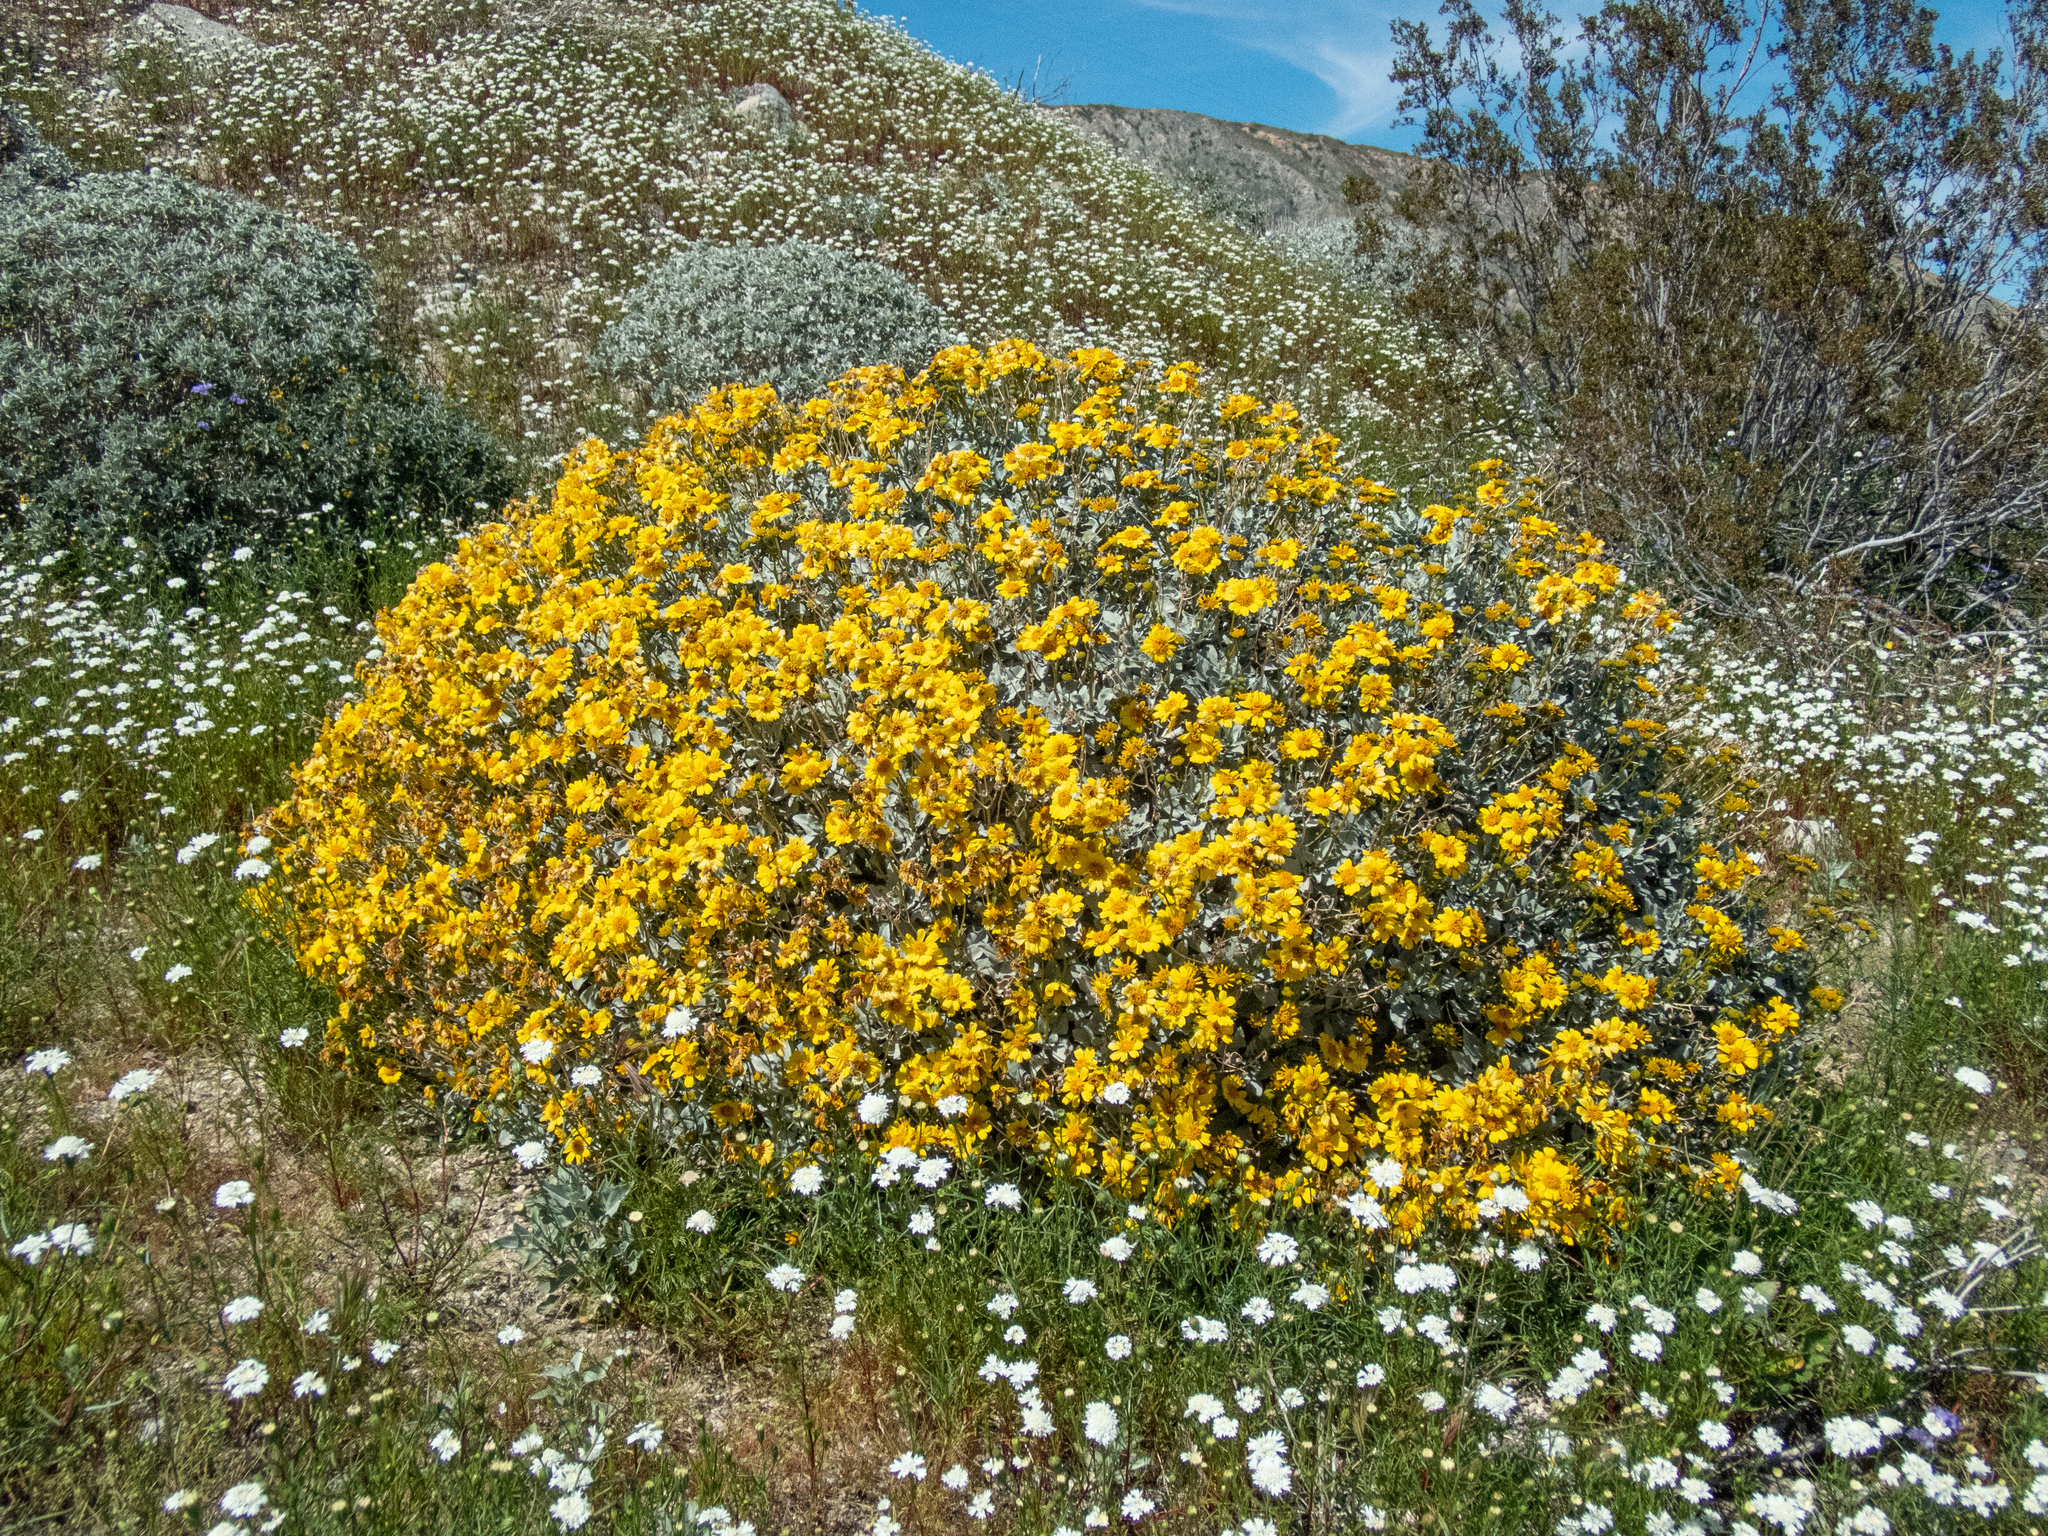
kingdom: Plantae
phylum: Tracheophyta
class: Magnoliopsida
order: Asterales
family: Asteraceae
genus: Encelia
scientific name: Encelia farinosa
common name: Brittlebush
